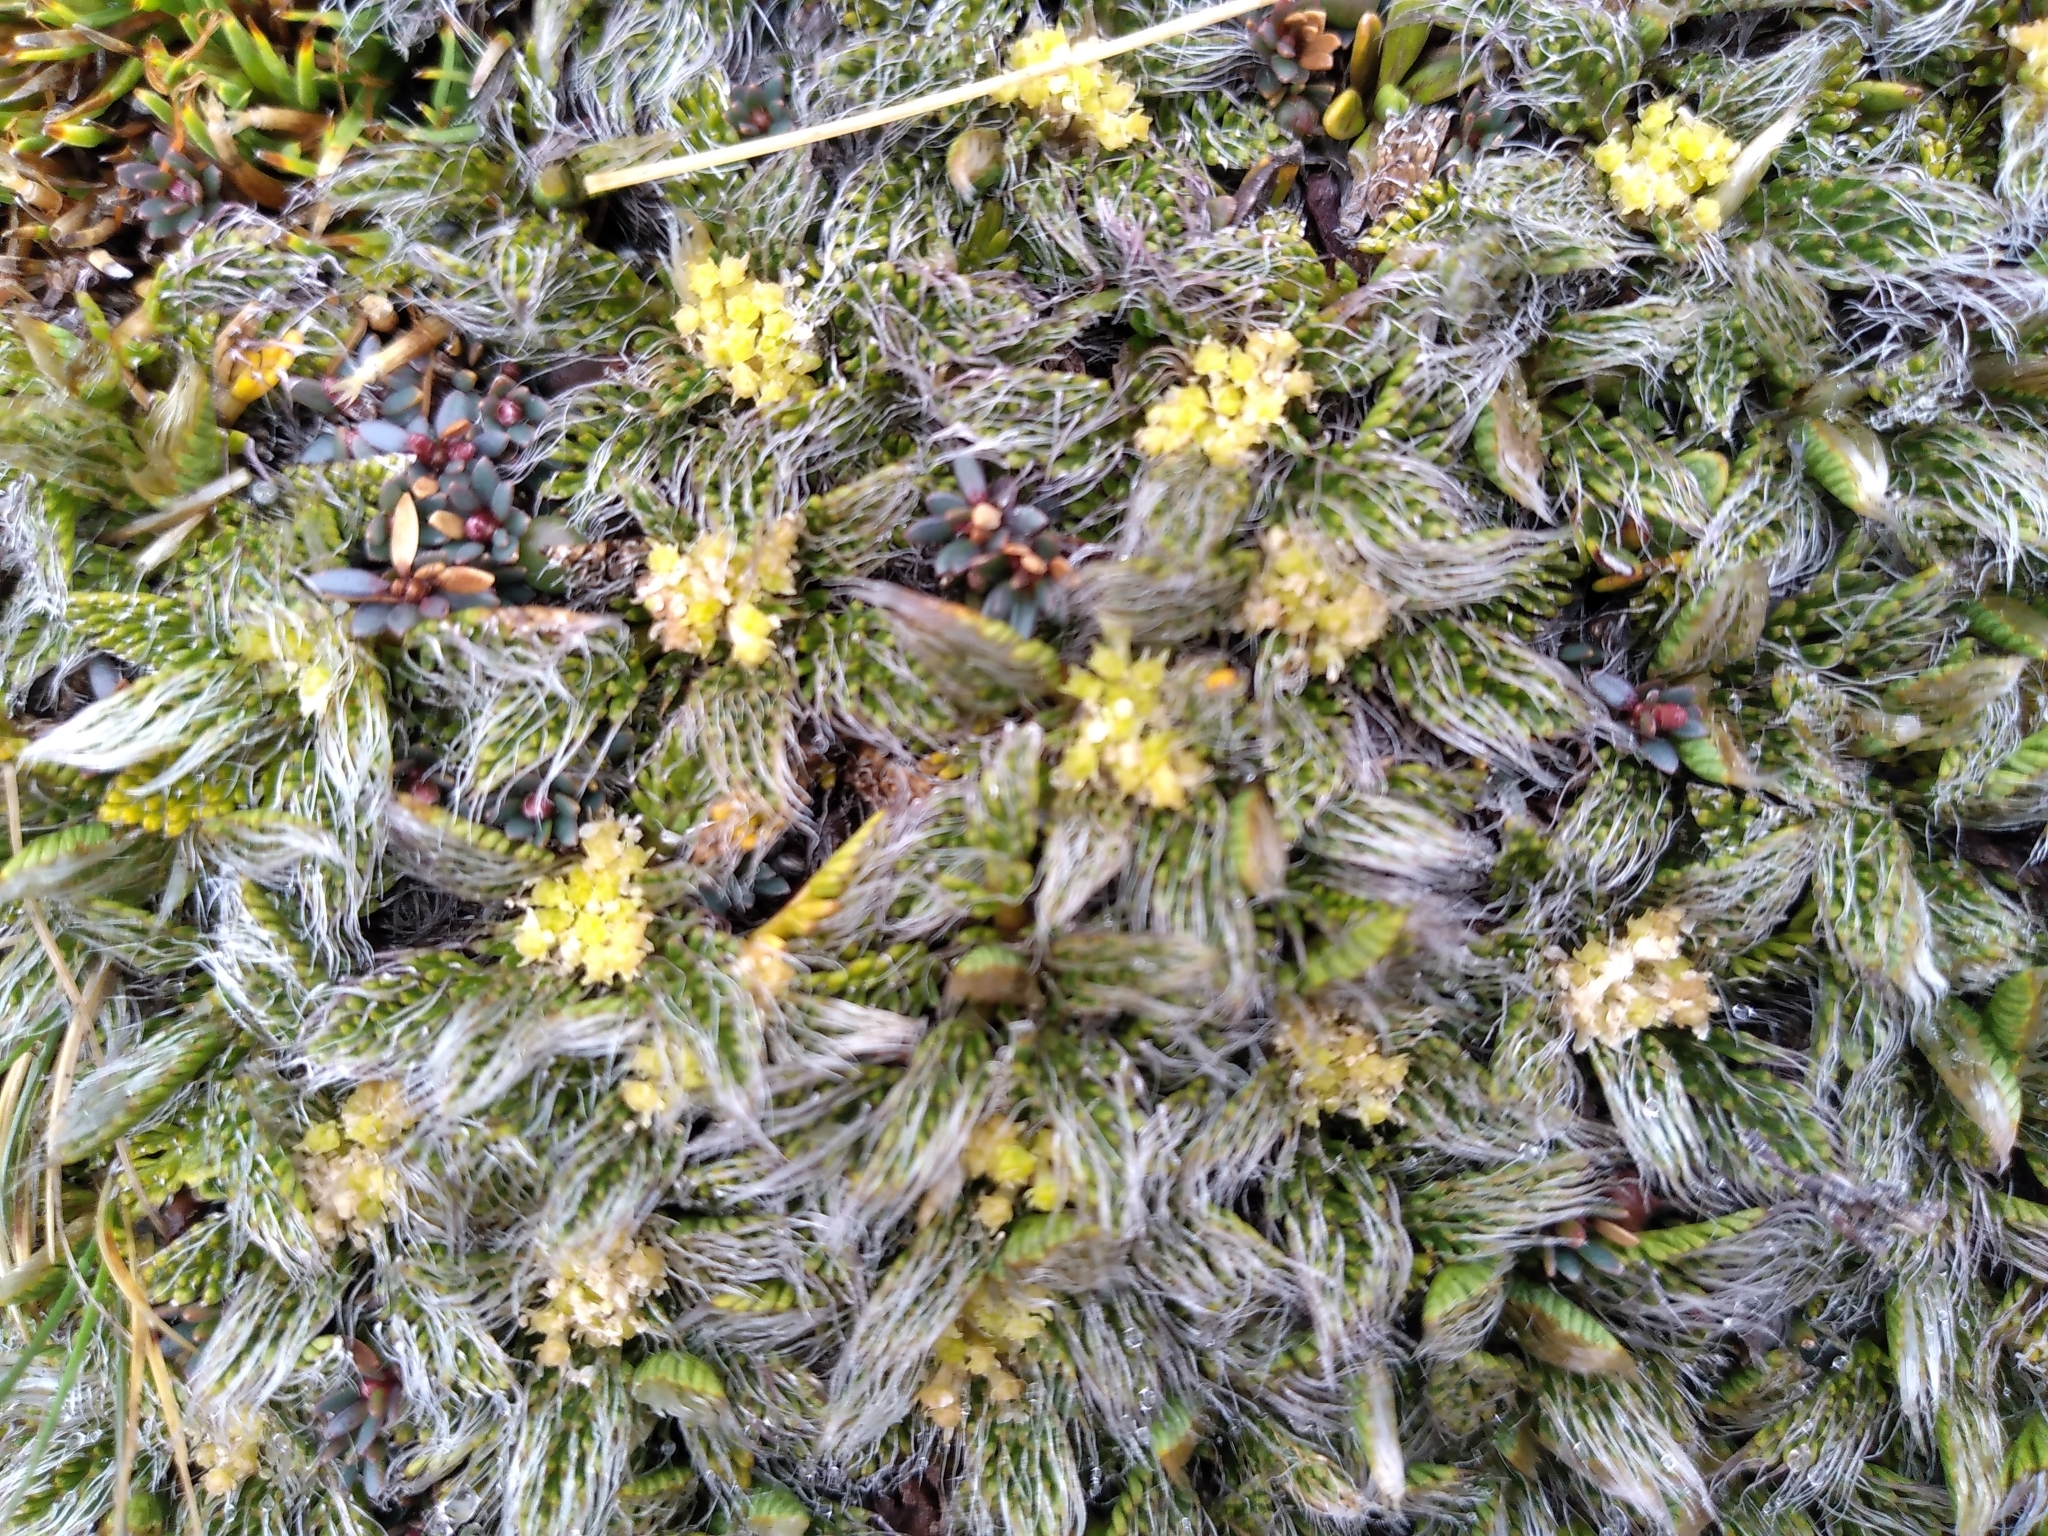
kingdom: Plantae
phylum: Tracheophyta
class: Magnoliopsida
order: Apiales
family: Apiaceae
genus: Anisotome
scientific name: Anisotome imbricata
